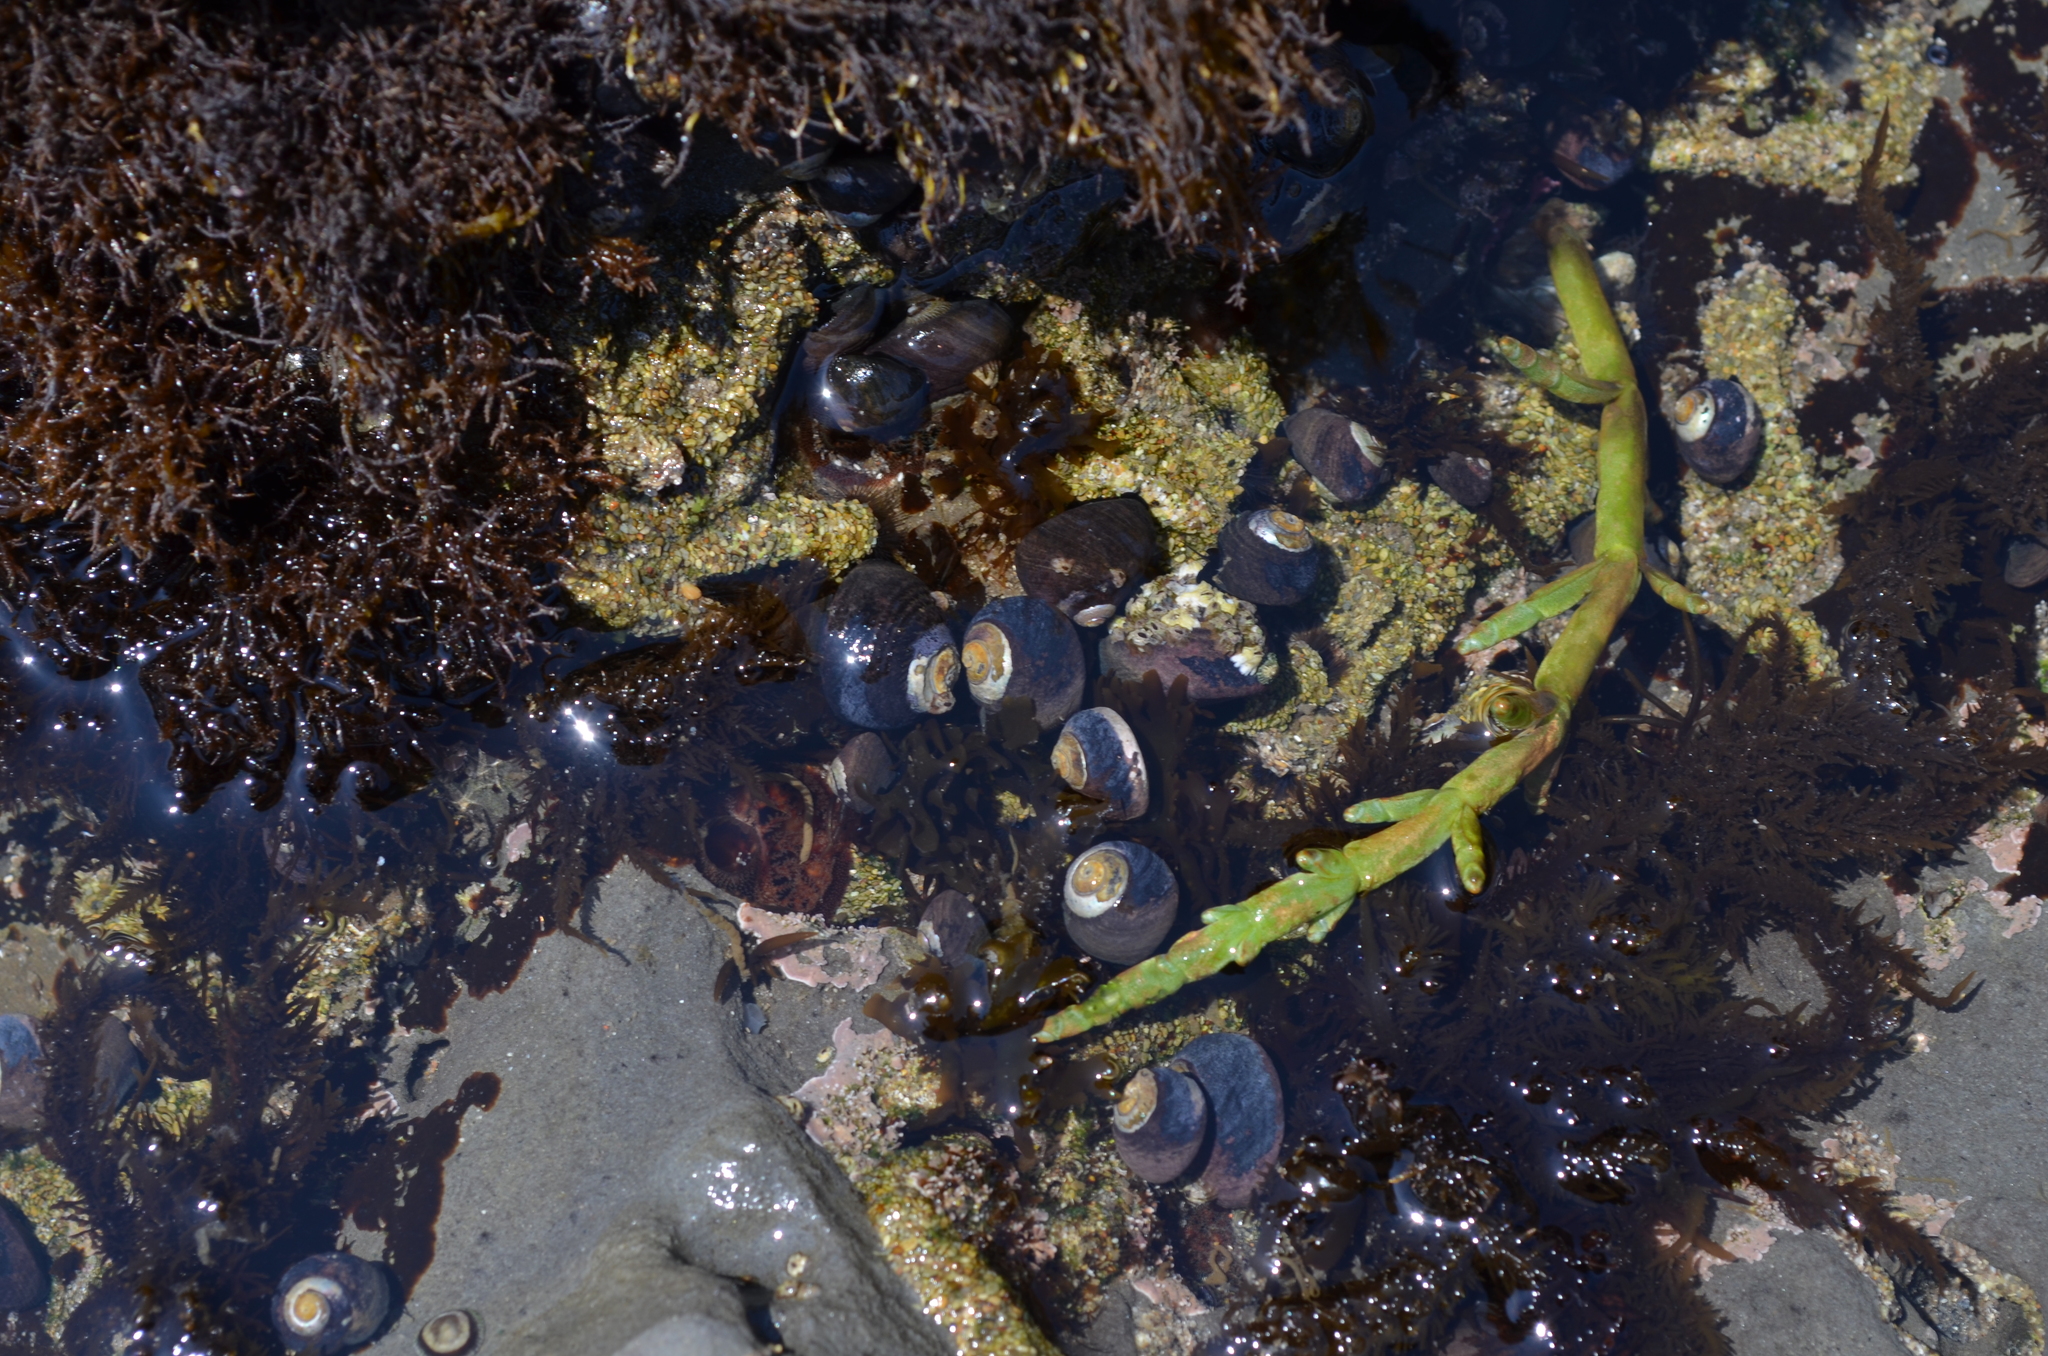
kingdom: Animalia
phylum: Mollusca
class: Gastropoda
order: Trochida
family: Tegulidae
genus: Tegula
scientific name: Tegula funebralis
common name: Black tegula
